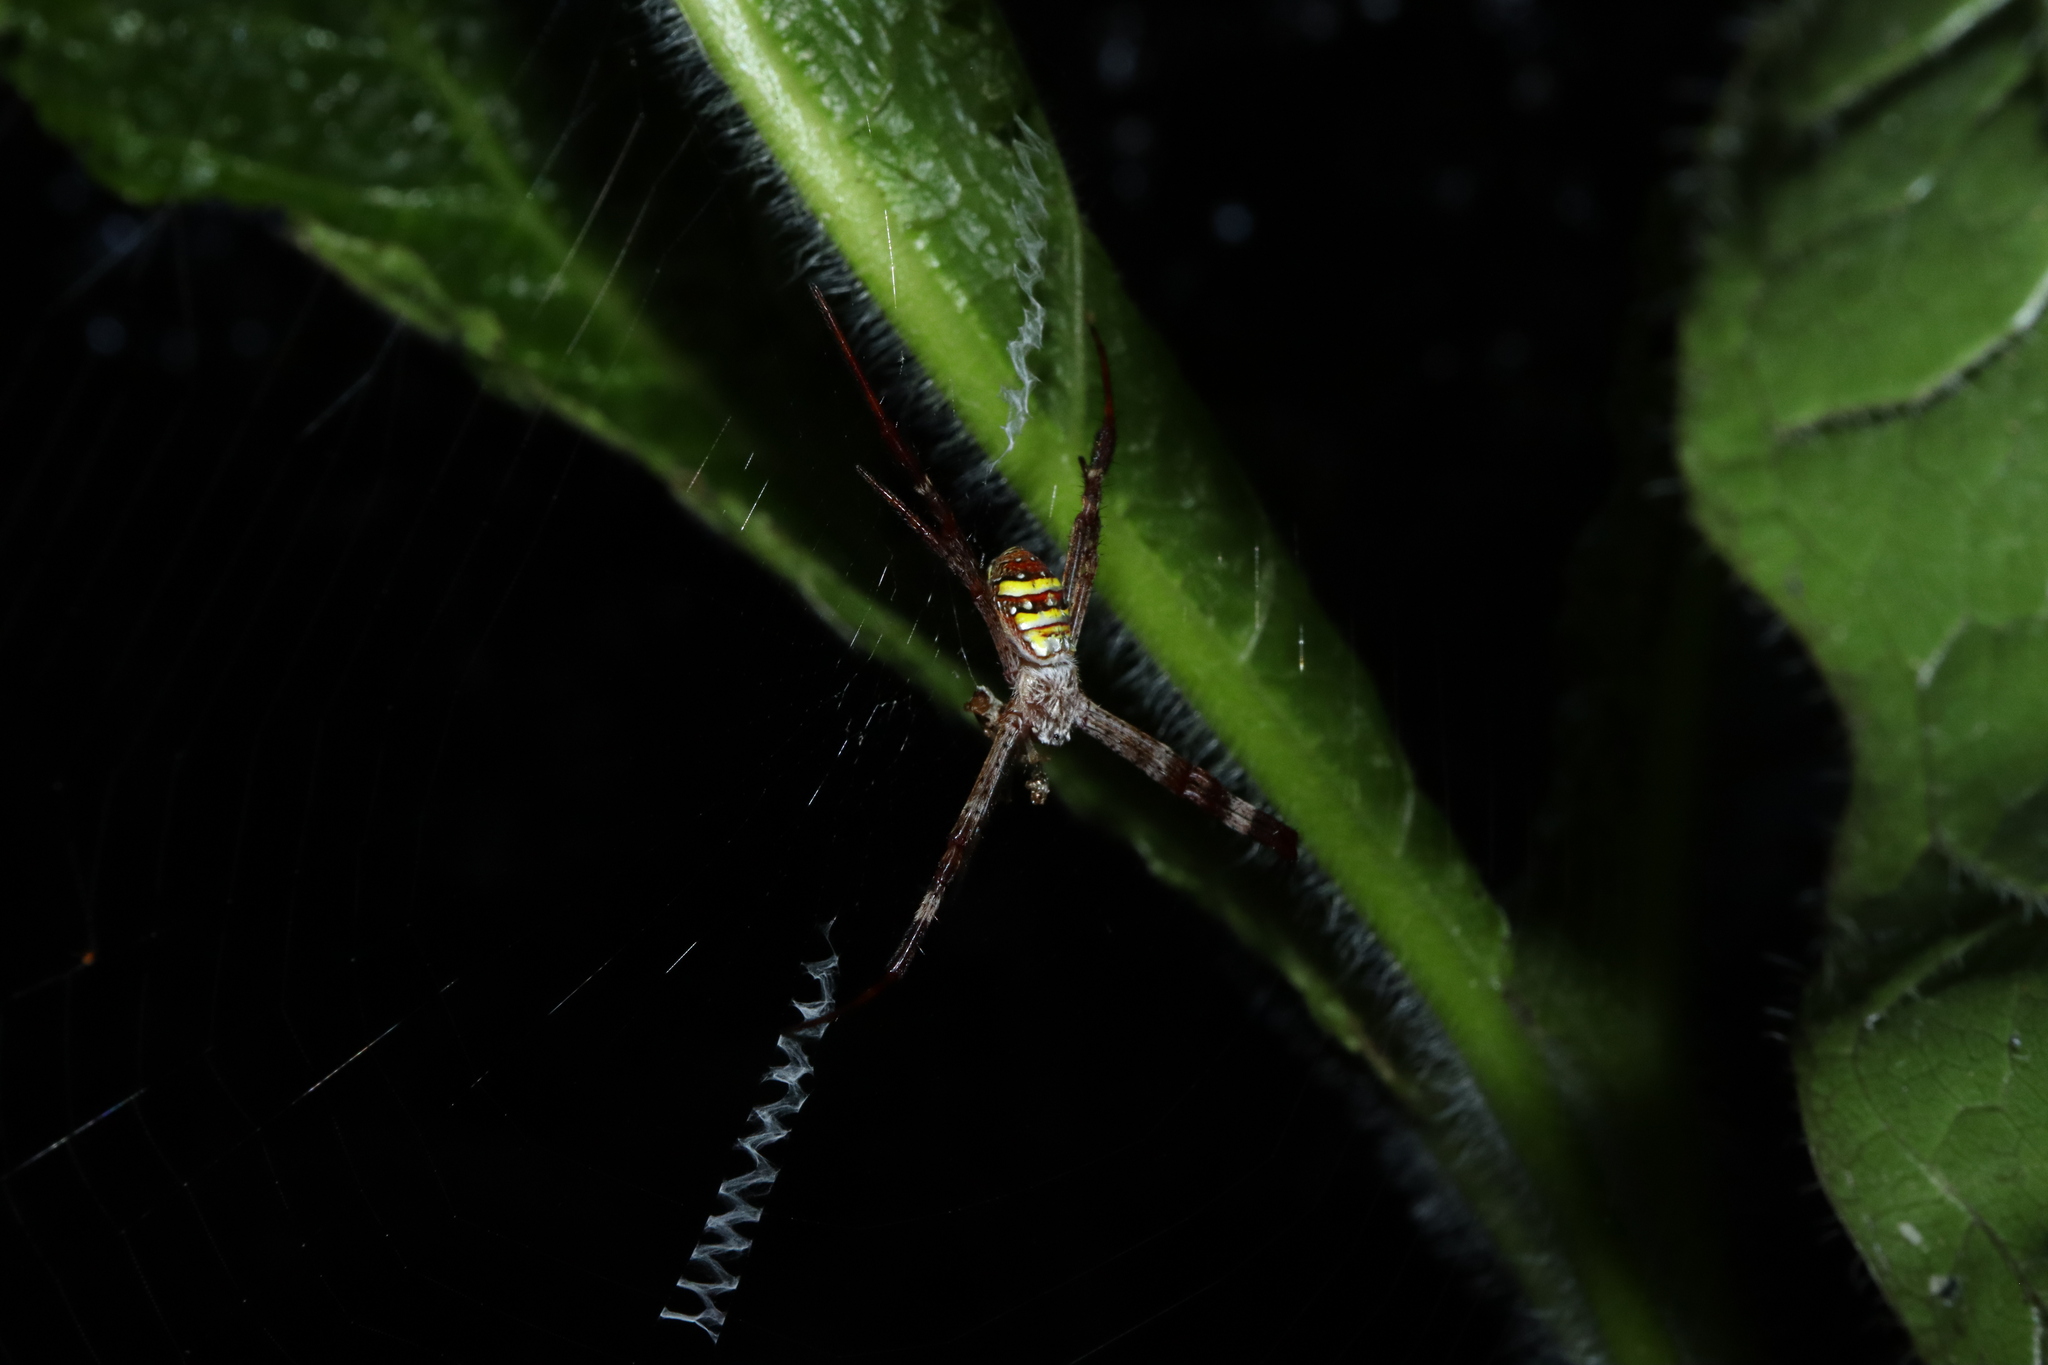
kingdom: Animalia
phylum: Arthropoda
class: Arachnida
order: Araneae
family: Araneidae
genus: Argiope
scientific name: Argiope aetherea
